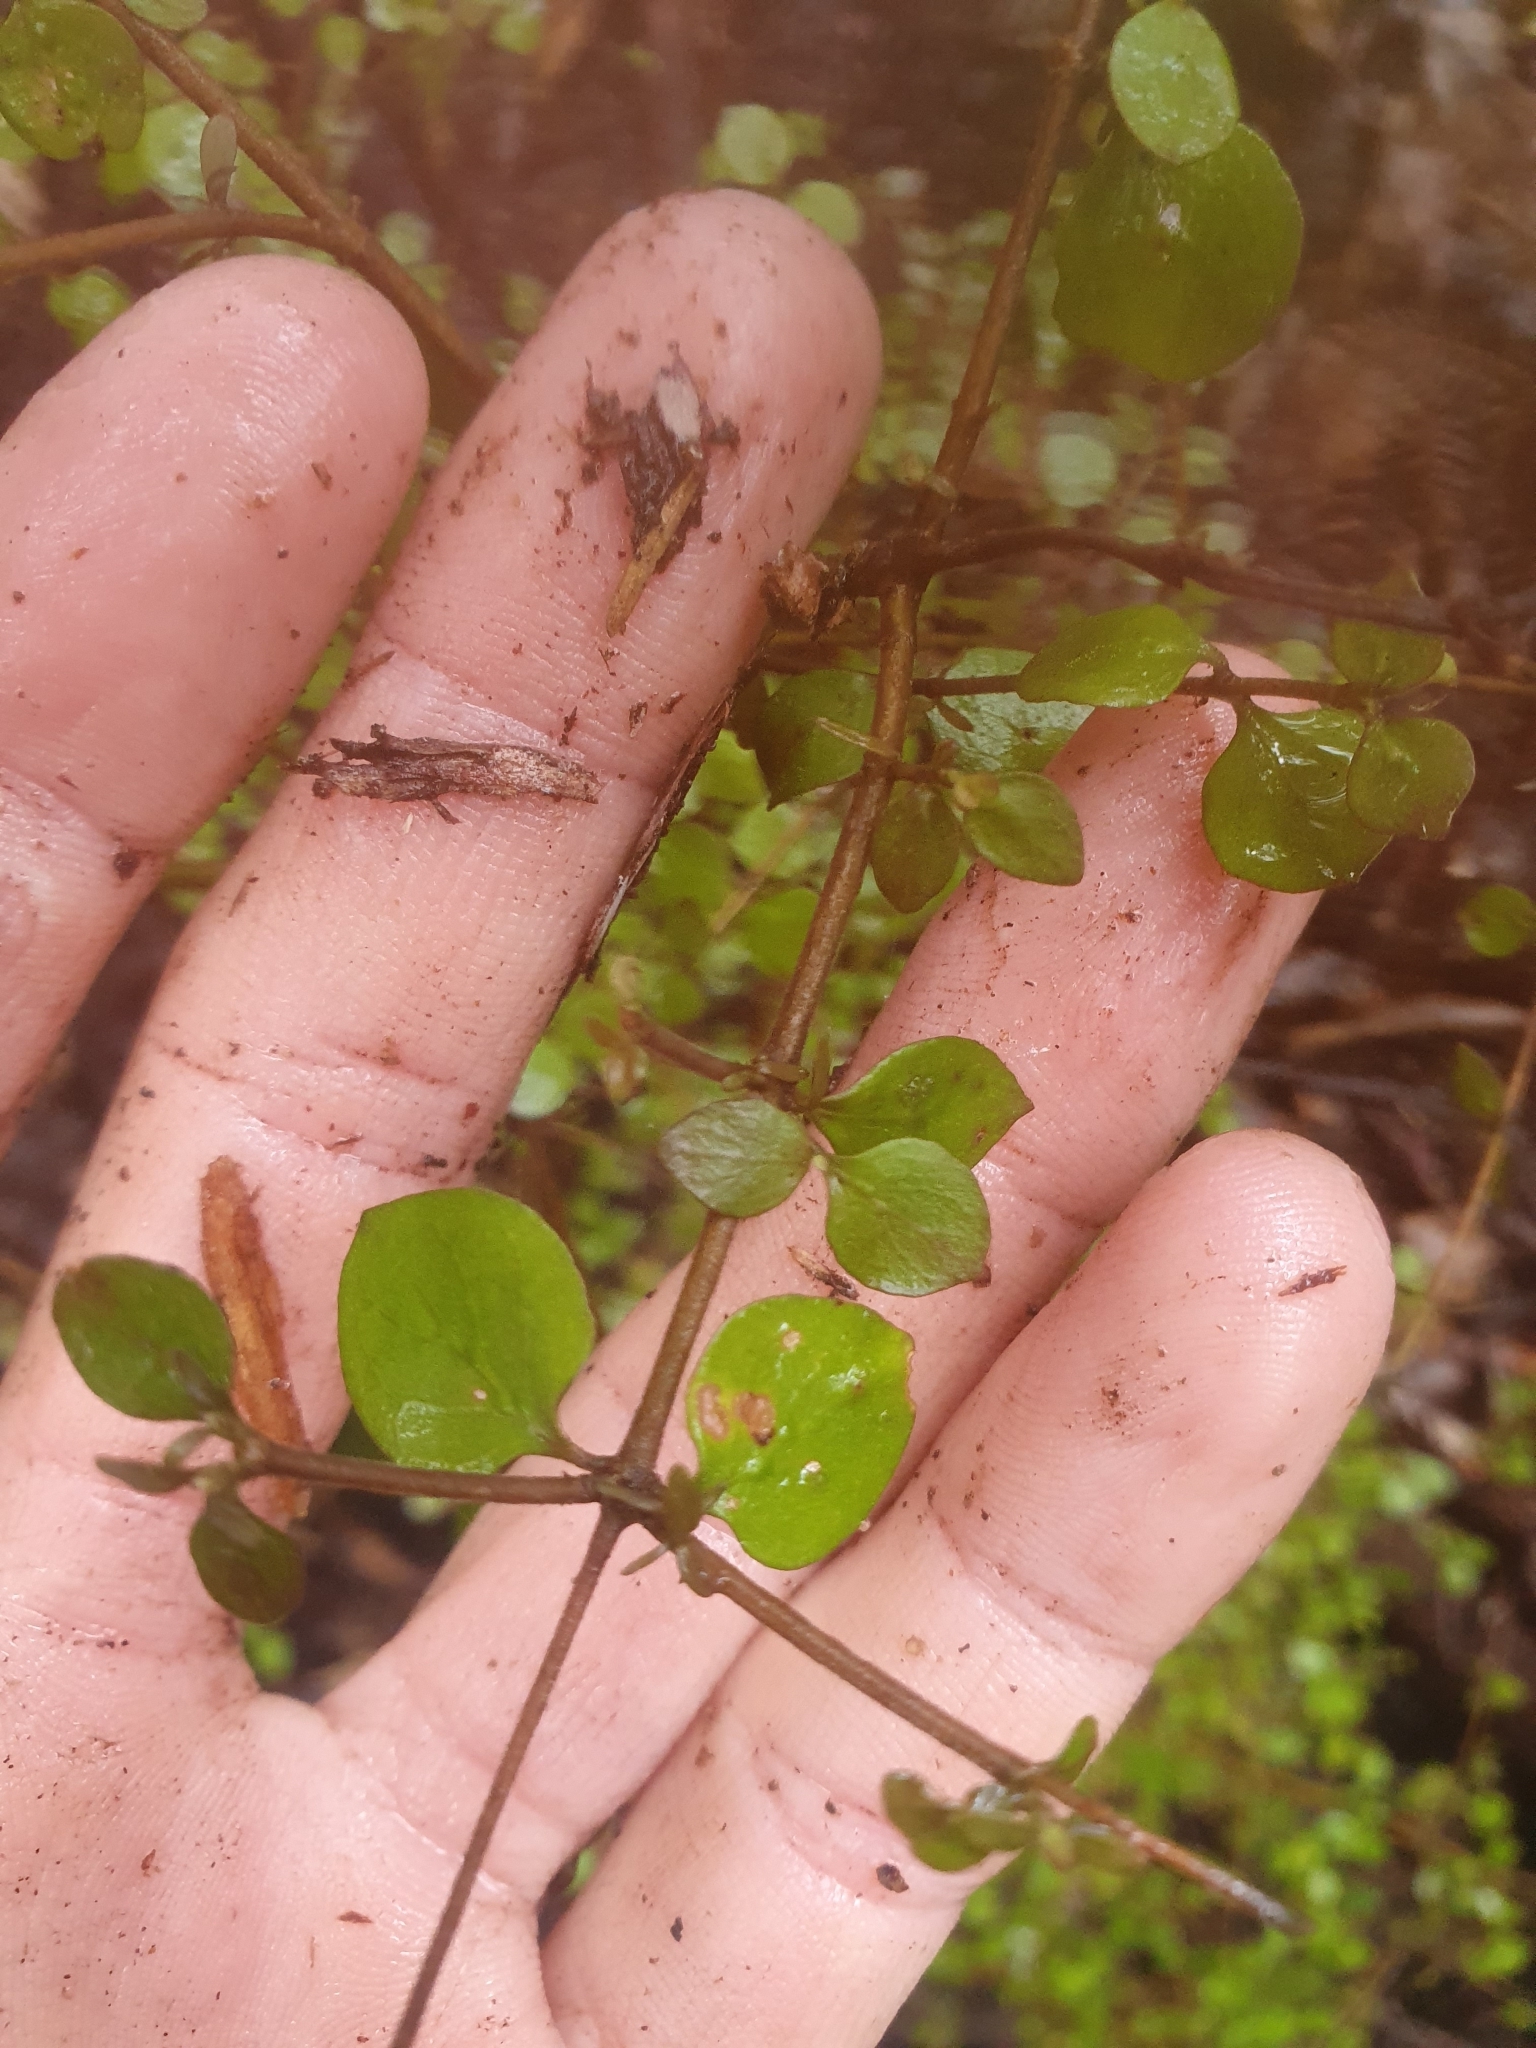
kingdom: Plantae
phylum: Tracheophyta
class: Magnoliopsida
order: Gentianales
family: Rubiaceae
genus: Coprosma
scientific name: Coprosma rotundifolia
